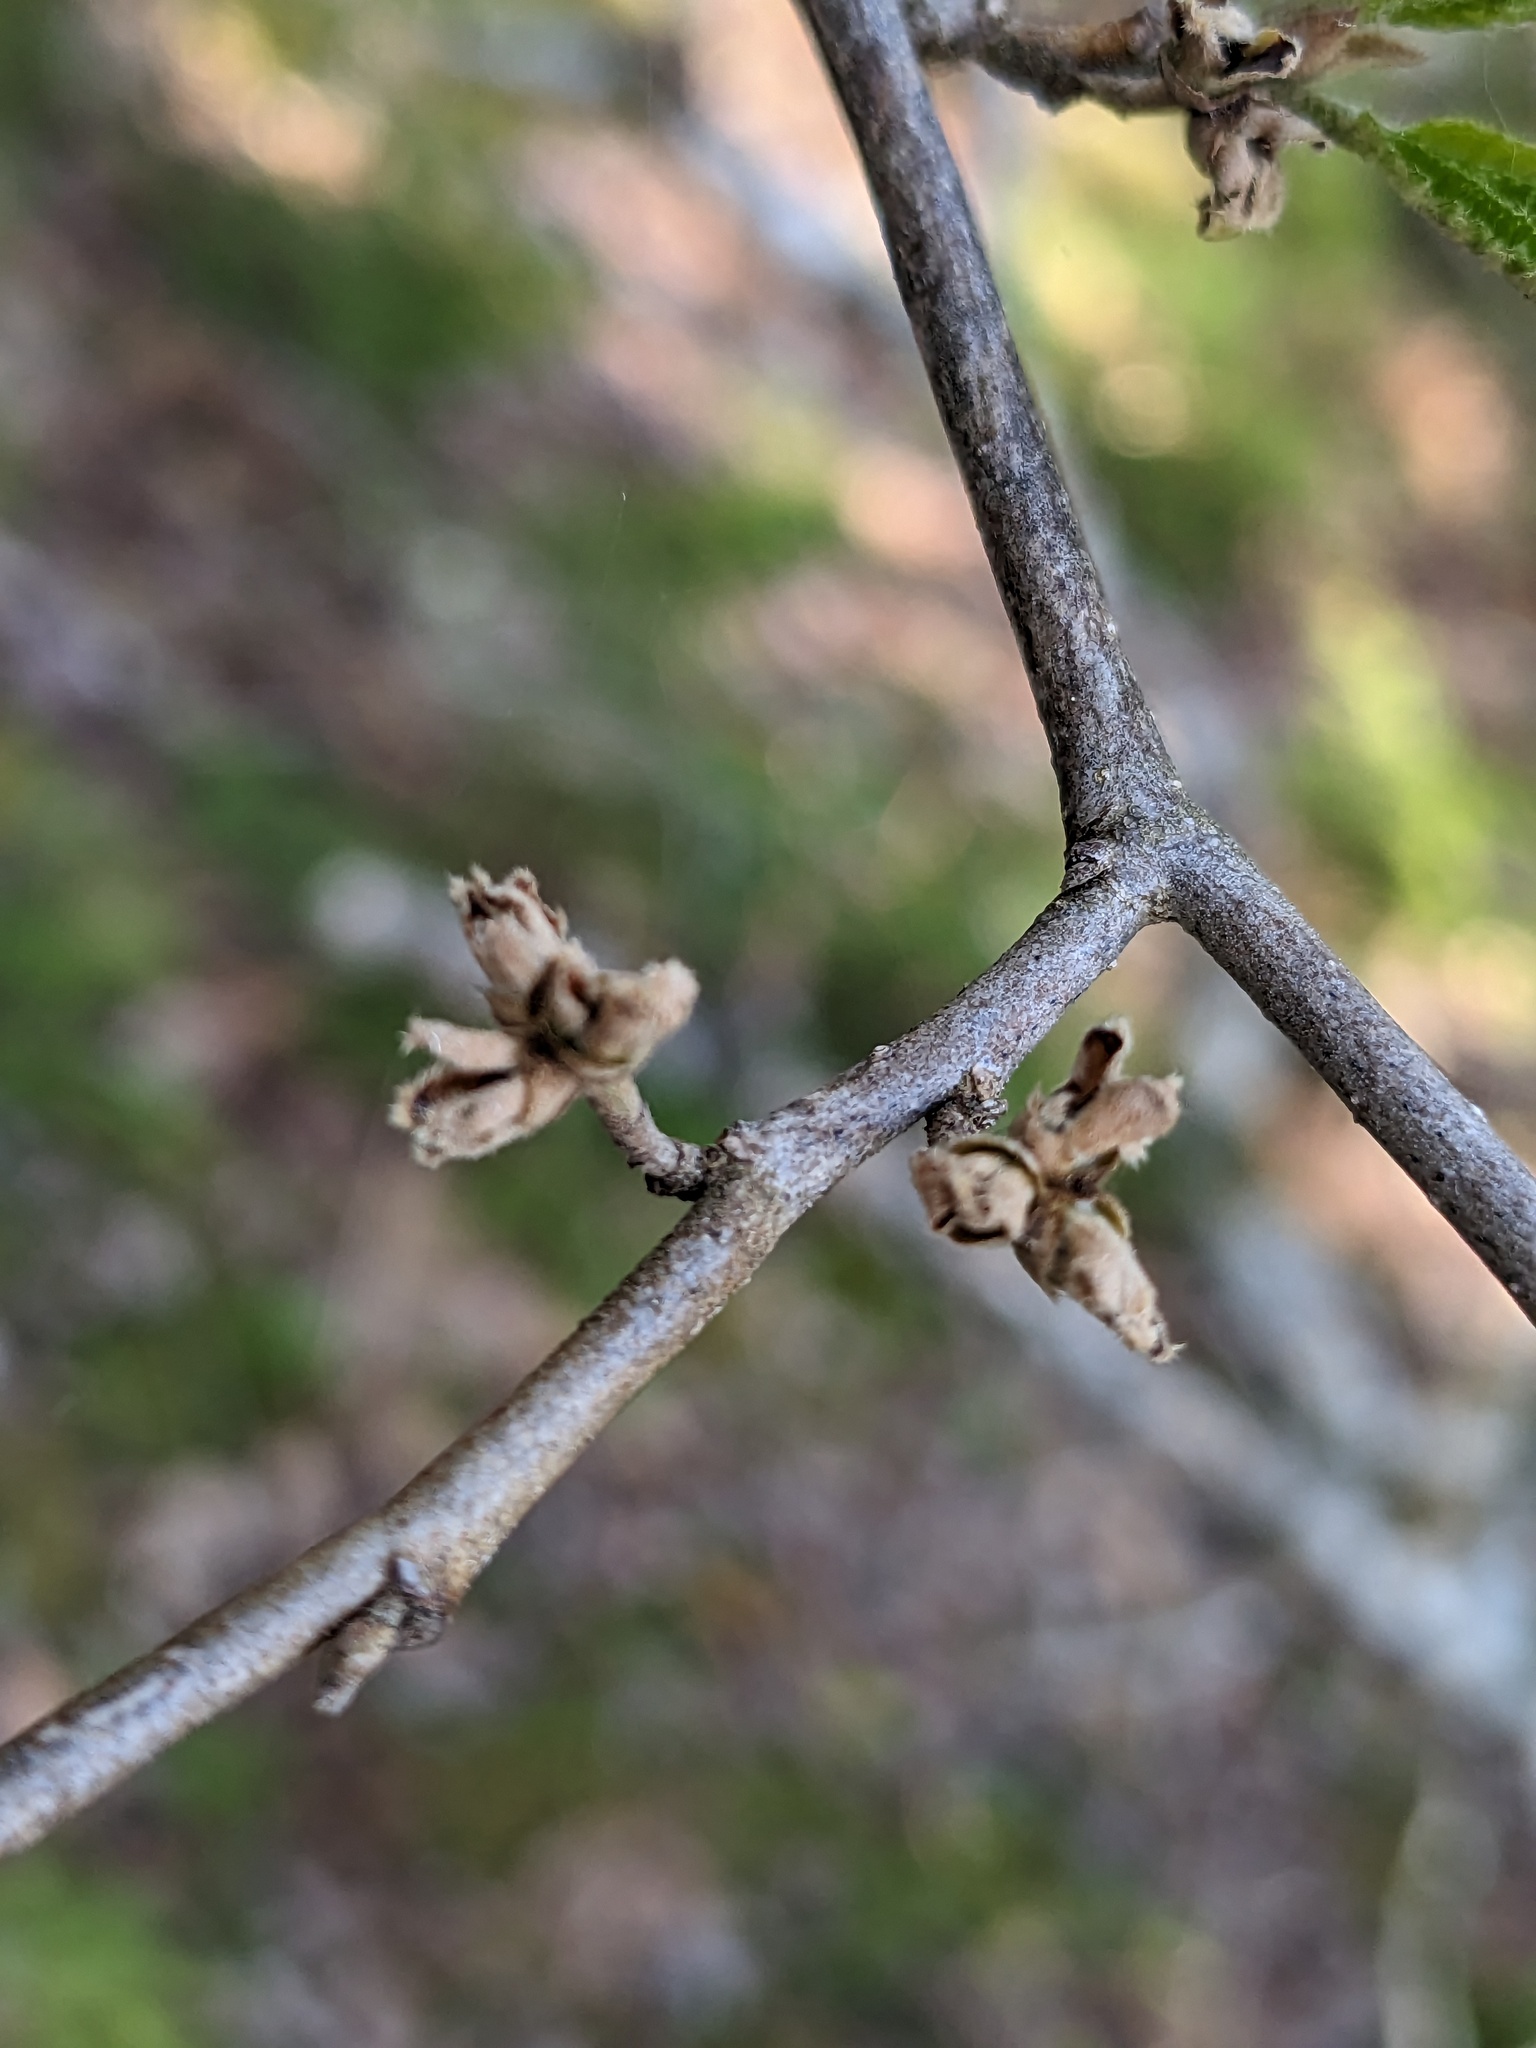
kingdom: Plantae
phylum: Tracheophyta
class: Magnoliopsida
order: Saxifragales
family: Hamamelidaceae
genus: Hamamelis
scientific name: Hamamelis virginiana
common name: Witch-hazel
